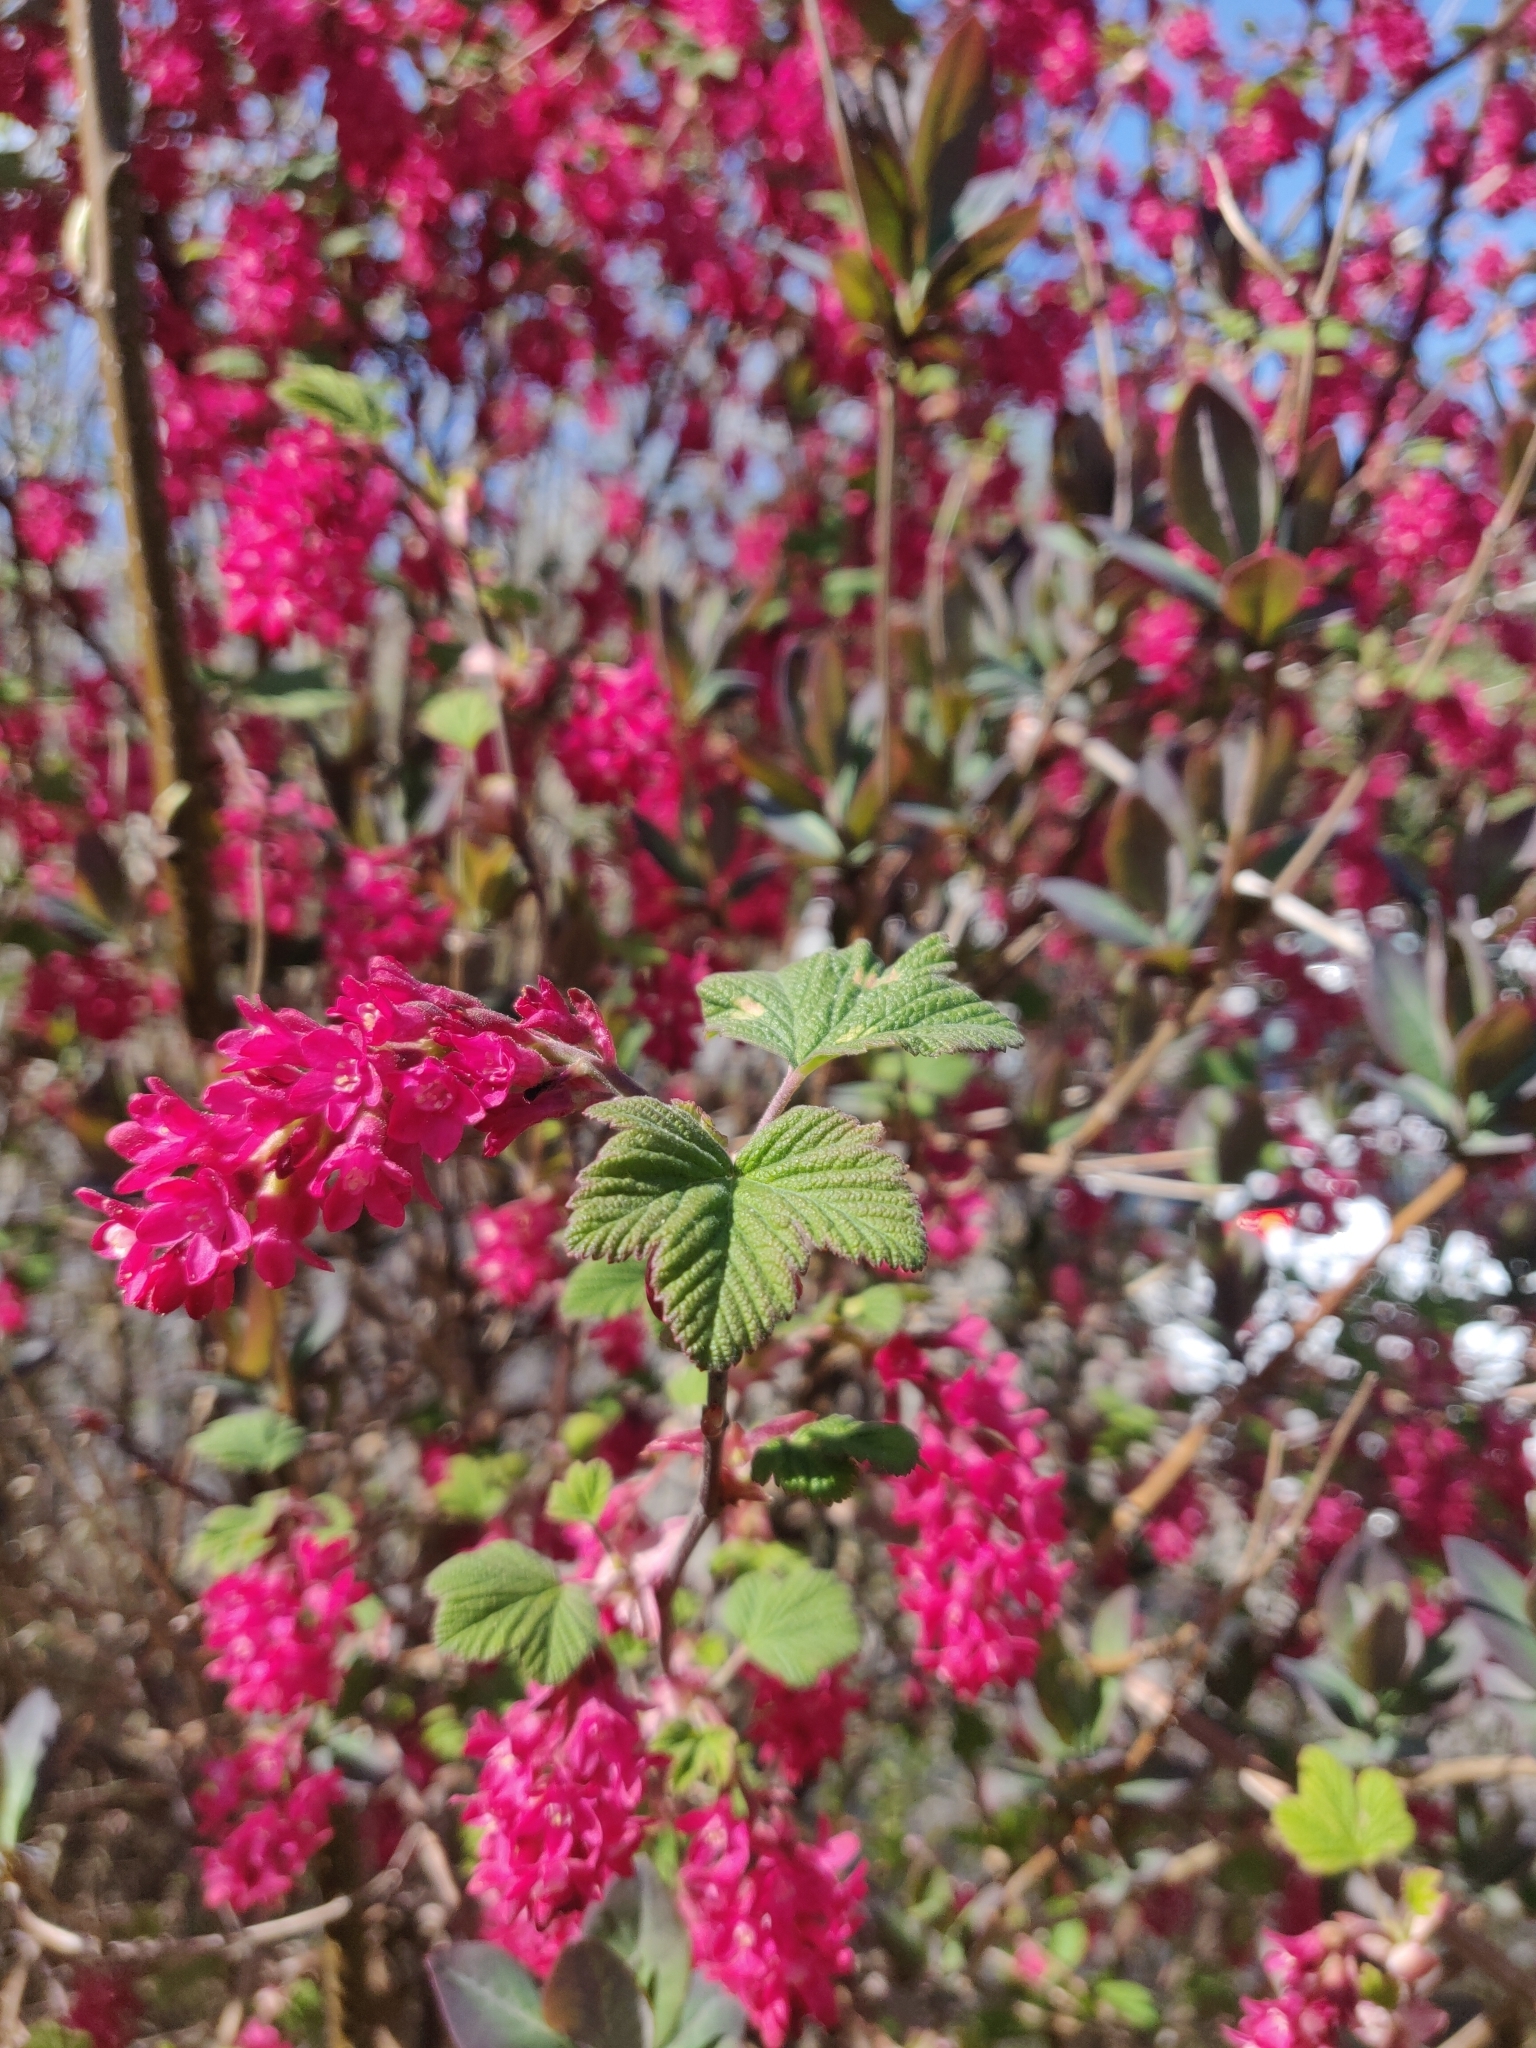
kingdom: Plantae
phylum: Tracheophyta
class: Magnoliopsida
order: Saxifragales
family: Grossulariaceae
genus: Ribes
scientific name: Ribes sanguineum
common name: Flowering currant
